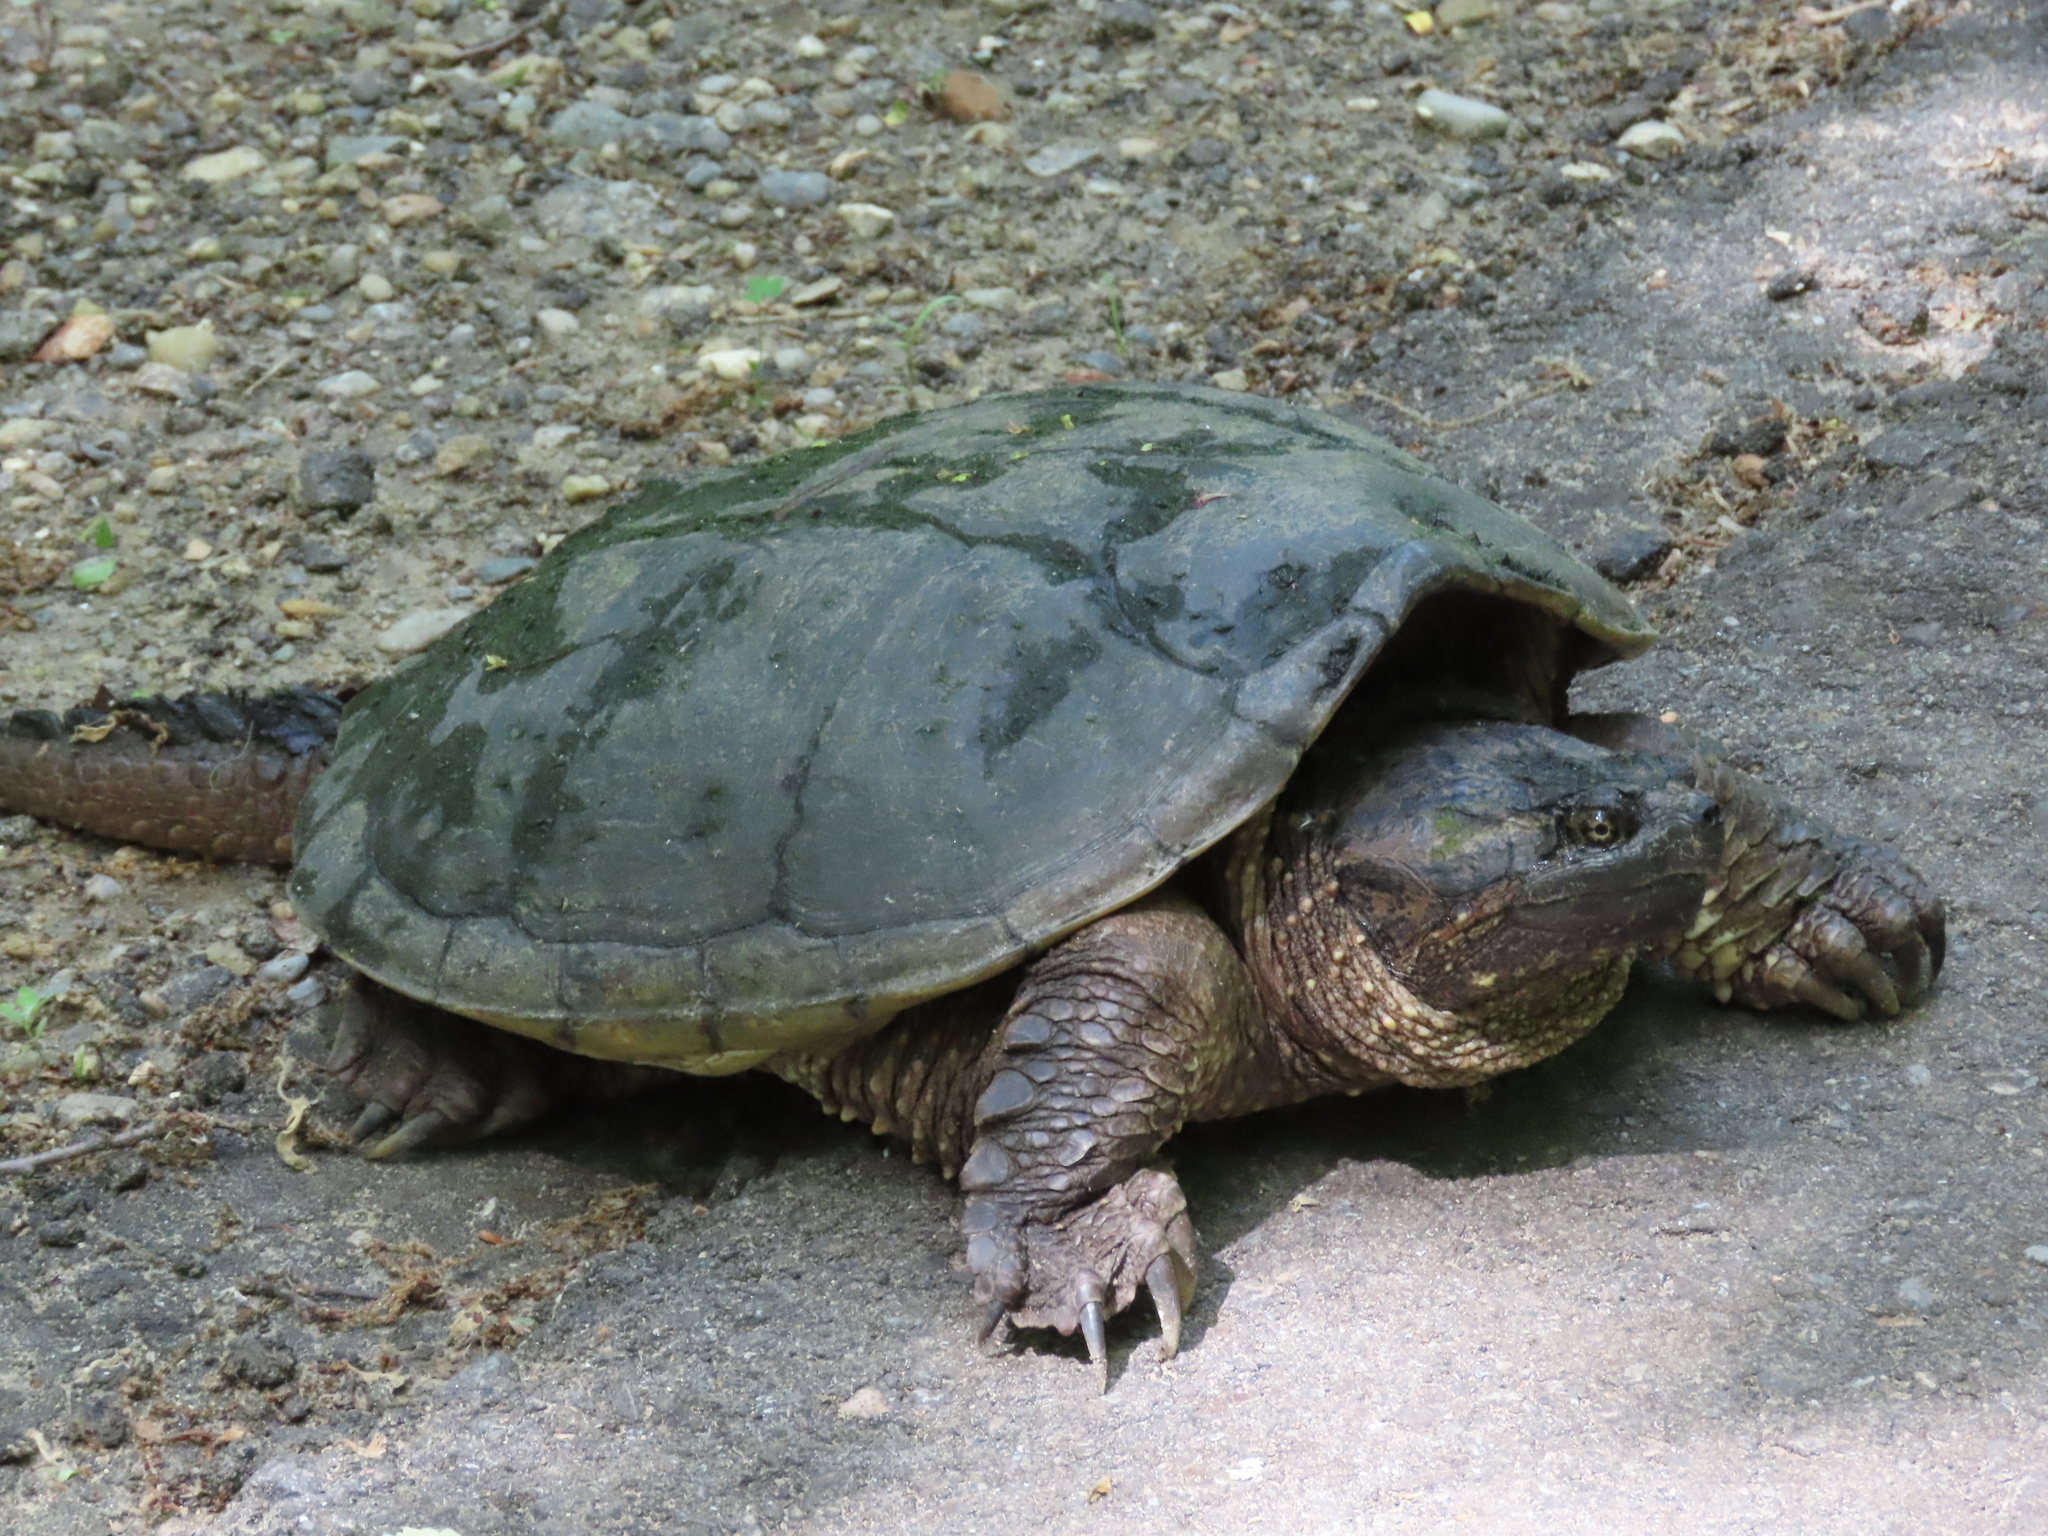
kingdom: Animalia
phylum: Chordata
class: Testudines
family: Chelydridae
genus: Chelydra
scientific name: Chelydra serpentina
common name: Common snapping turtle
